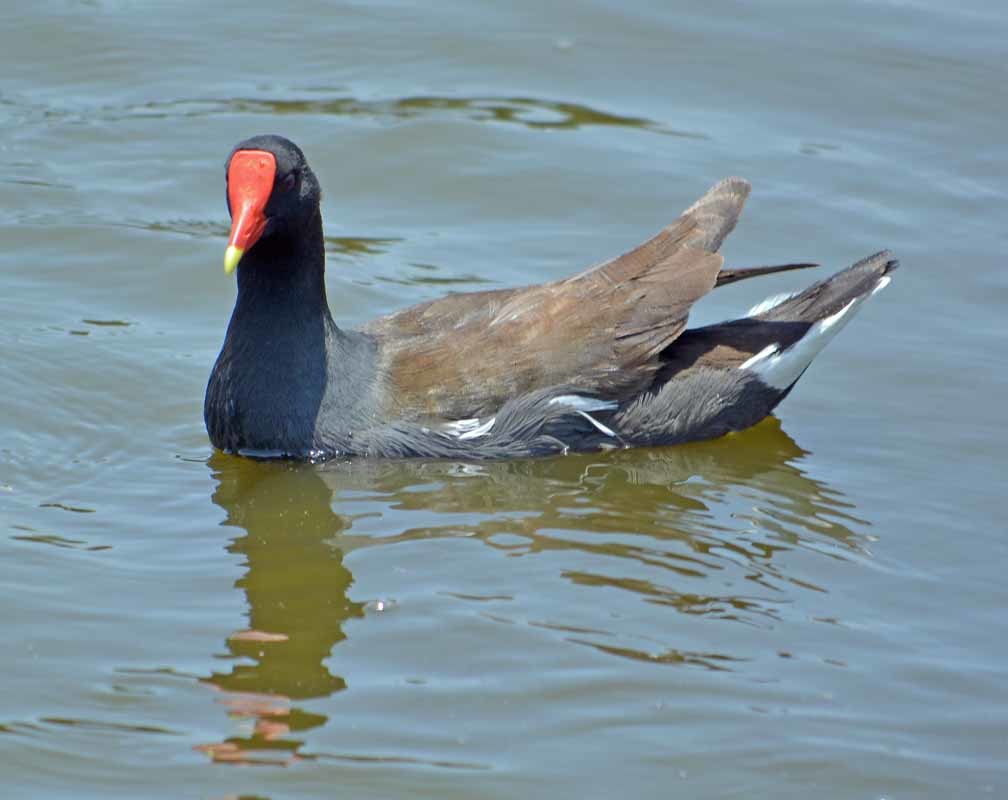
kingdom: Animalia
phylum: Chordata
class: Aves
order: Gruiformes
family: Rallidae
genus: Gallinula
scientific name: Gallinula chloropus
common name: Common moorhen
